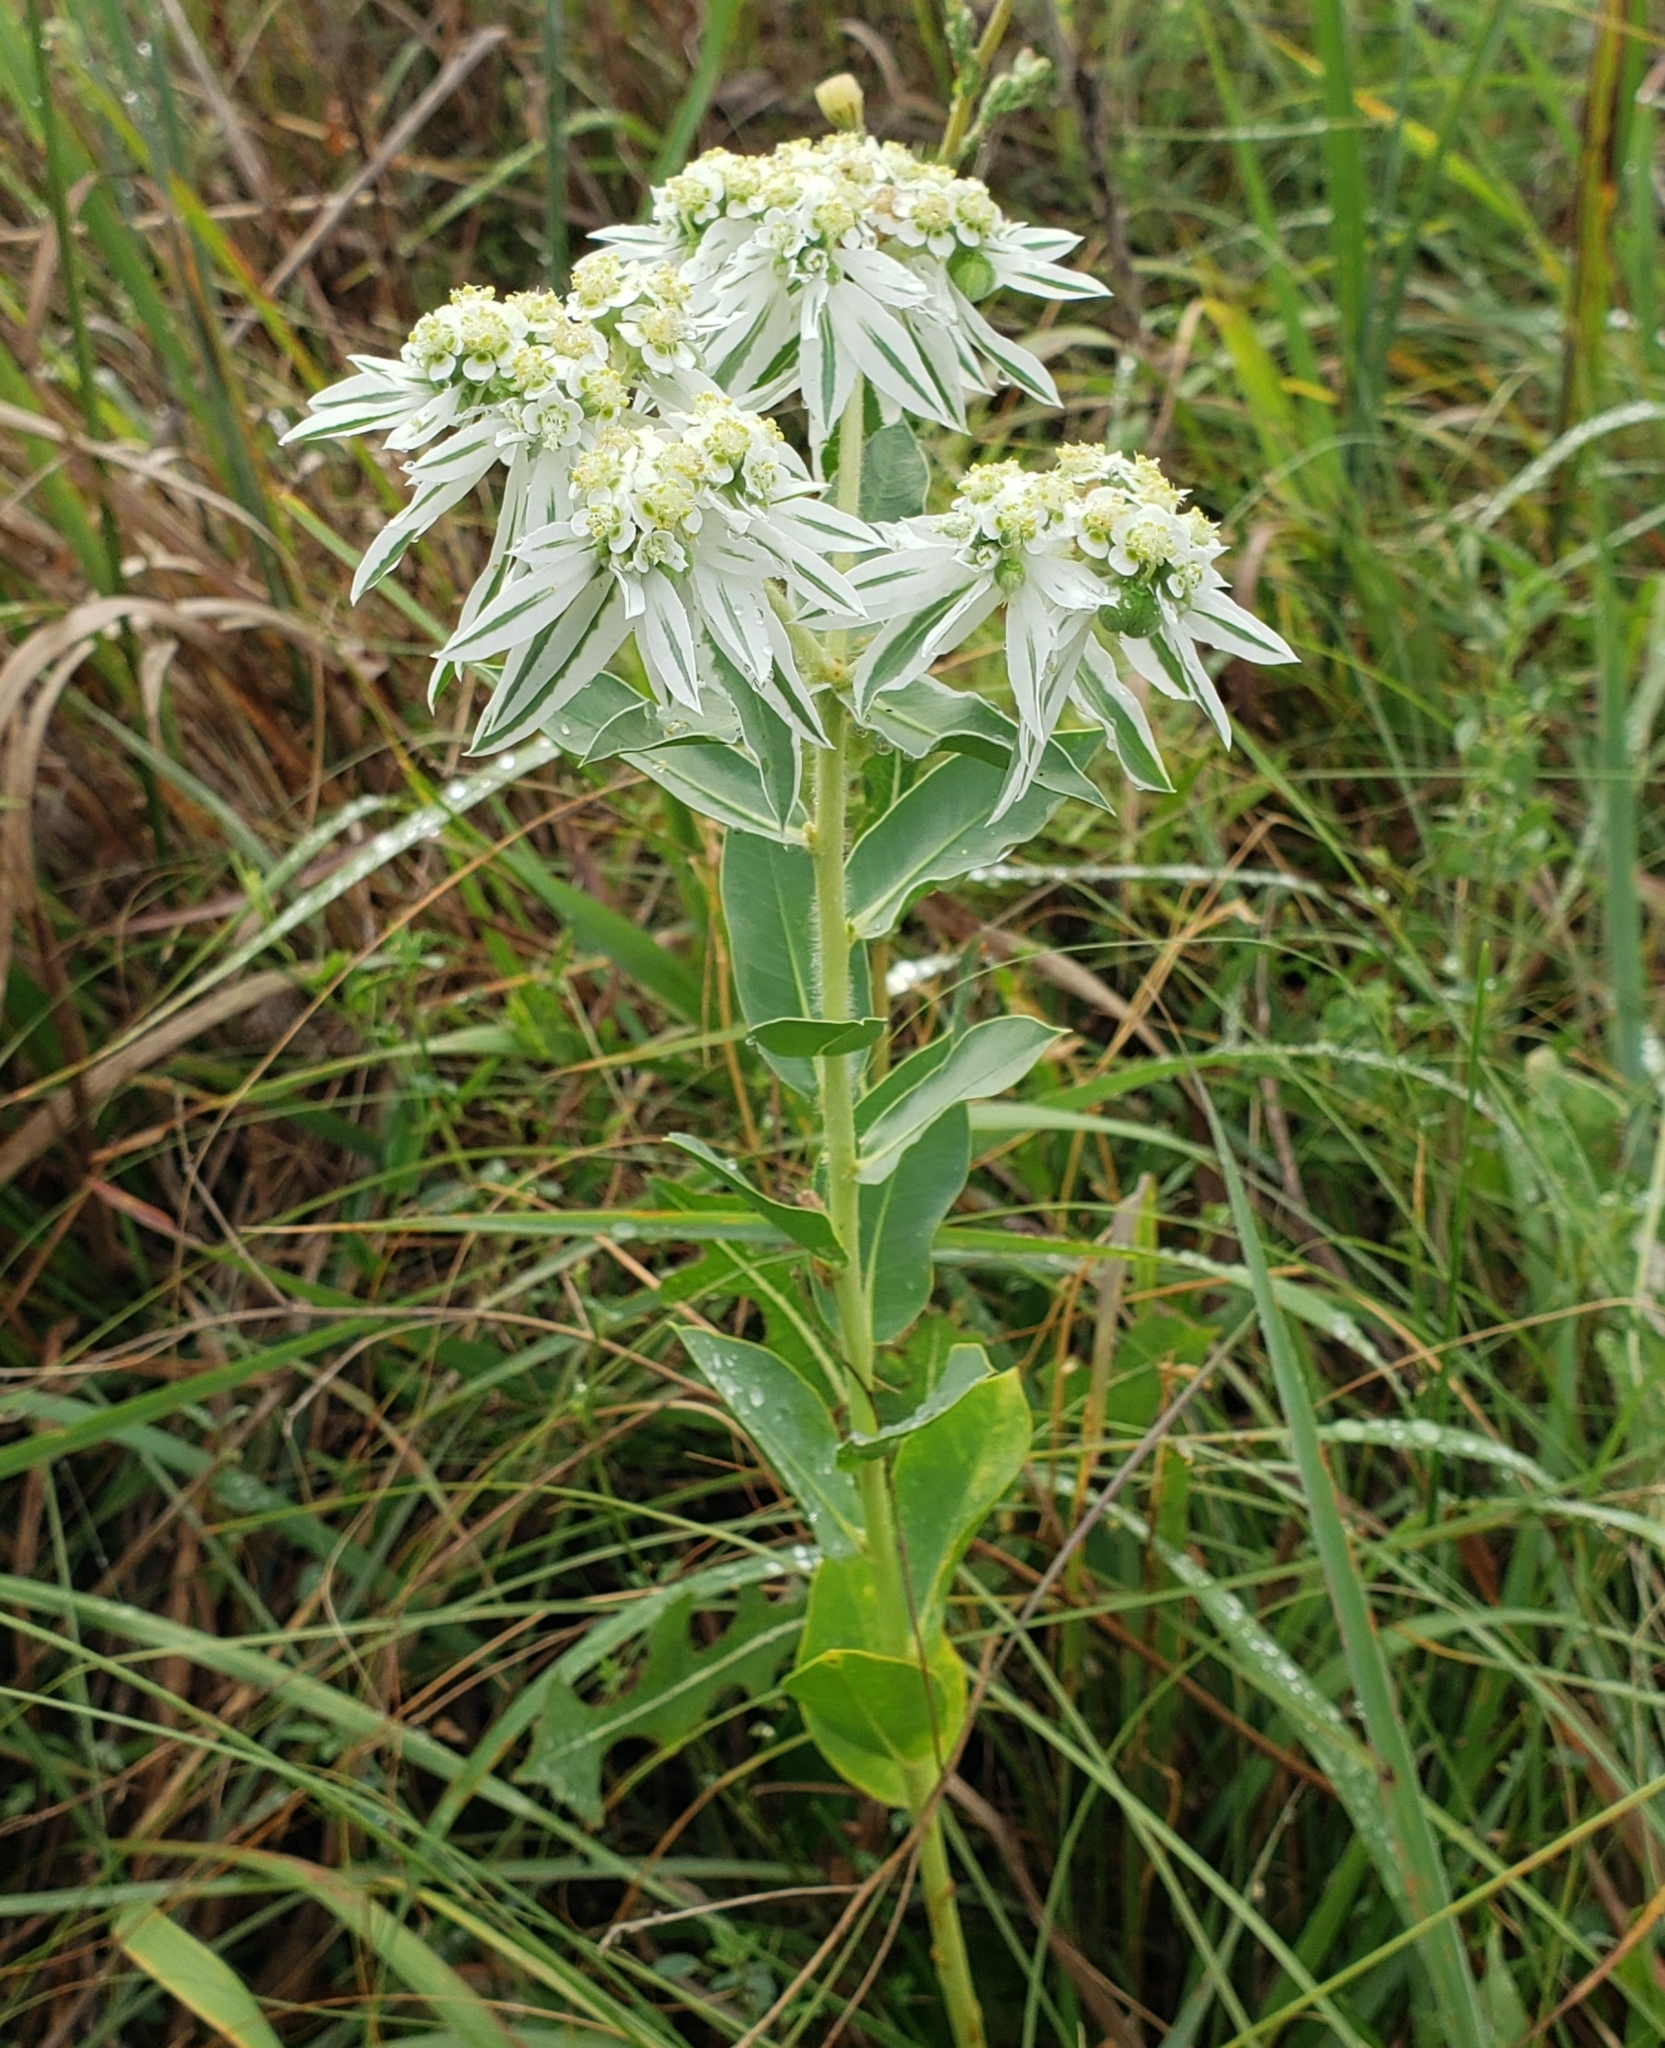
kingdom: Plantae
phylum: Tracheophyta
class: Magnoliopsida
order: Malpighiales
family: Euphorbiaceae
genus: Euphorbia
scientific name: Euphorbia marginata
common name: Ghostweed
